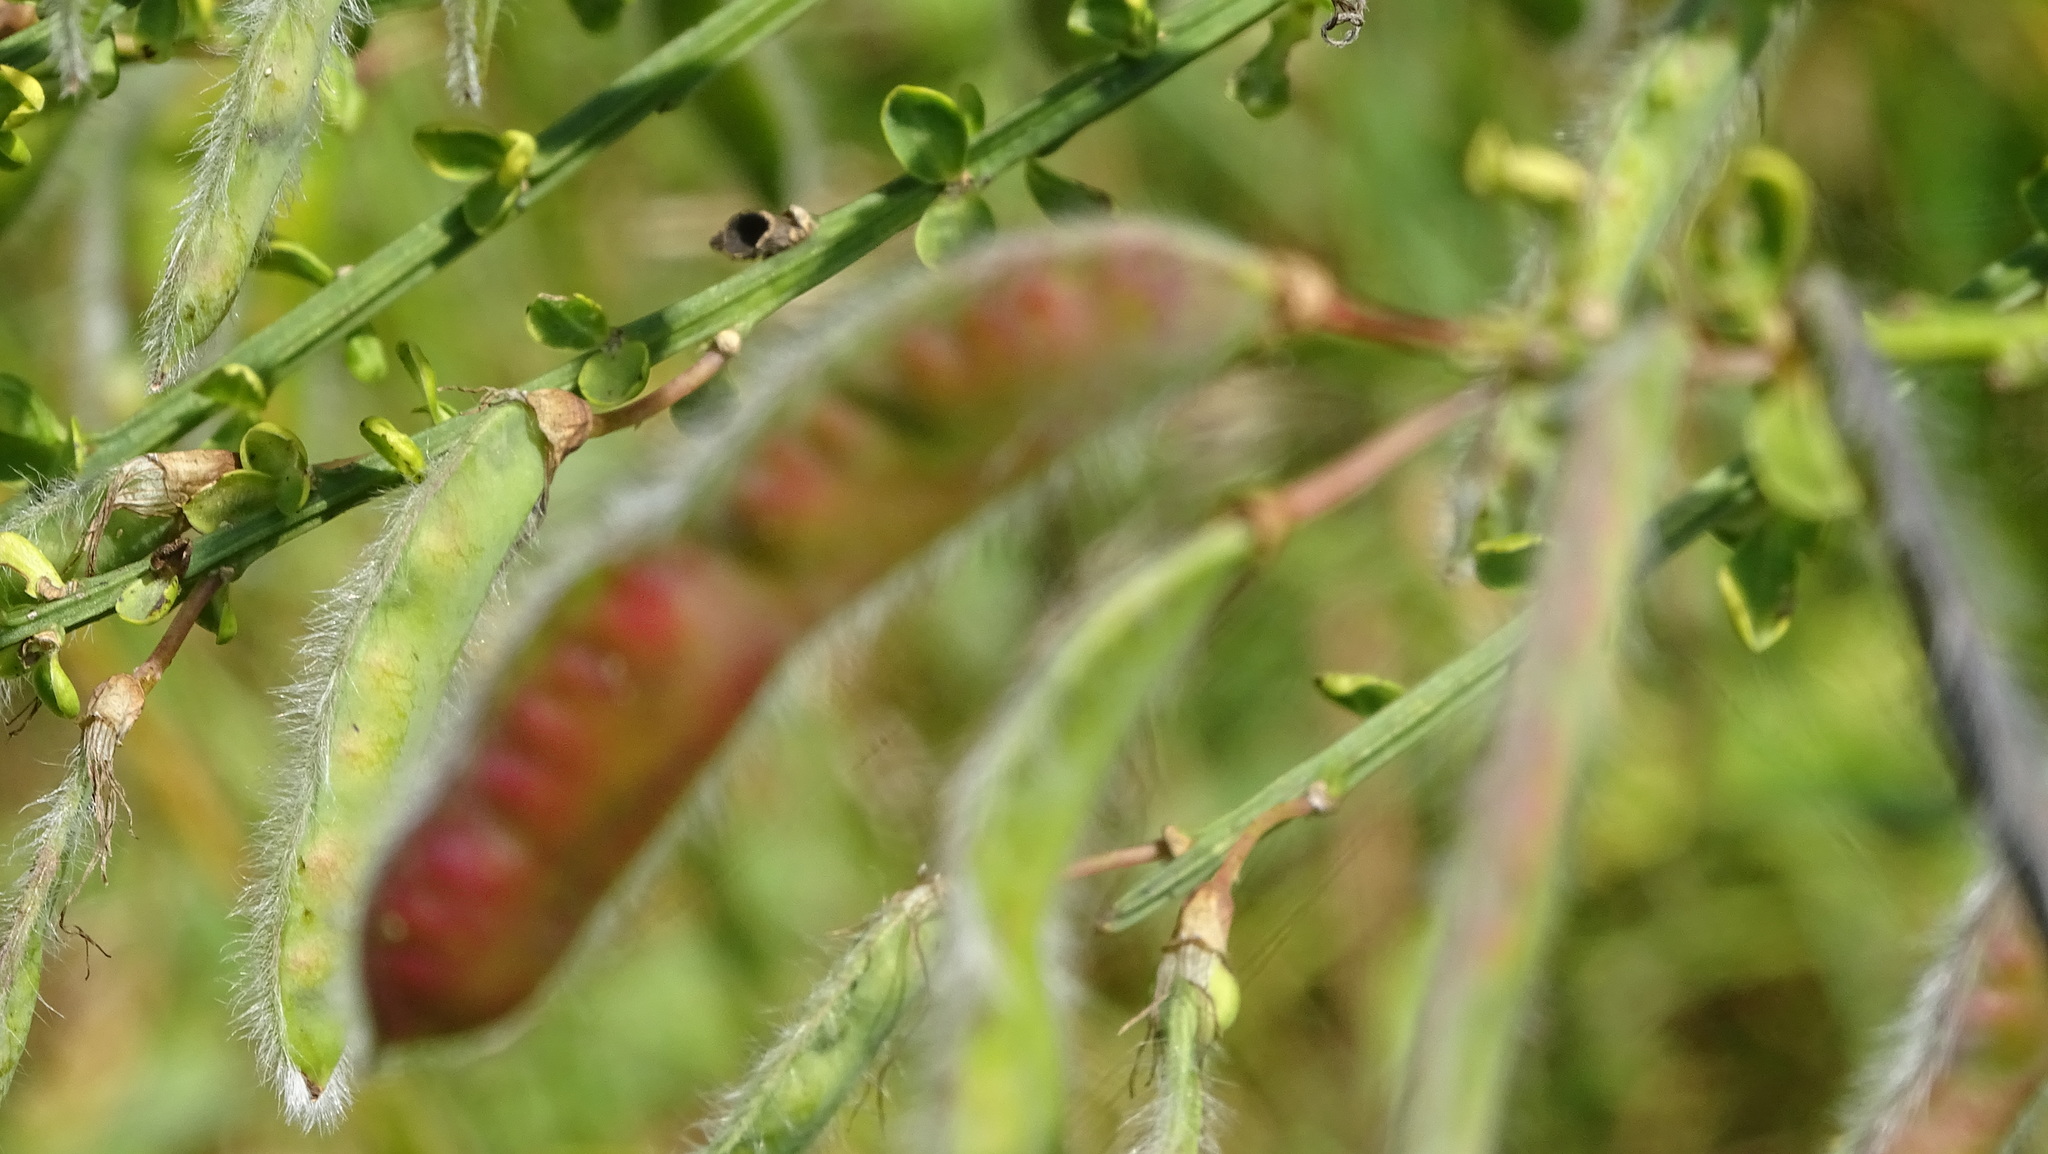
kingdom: Plantae
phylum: Tracheophyta
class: Magnoliopsida
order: Fabales
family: Fabaceae
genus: Cytisus
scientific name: Cytisus scoparius
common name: Scotch broom
